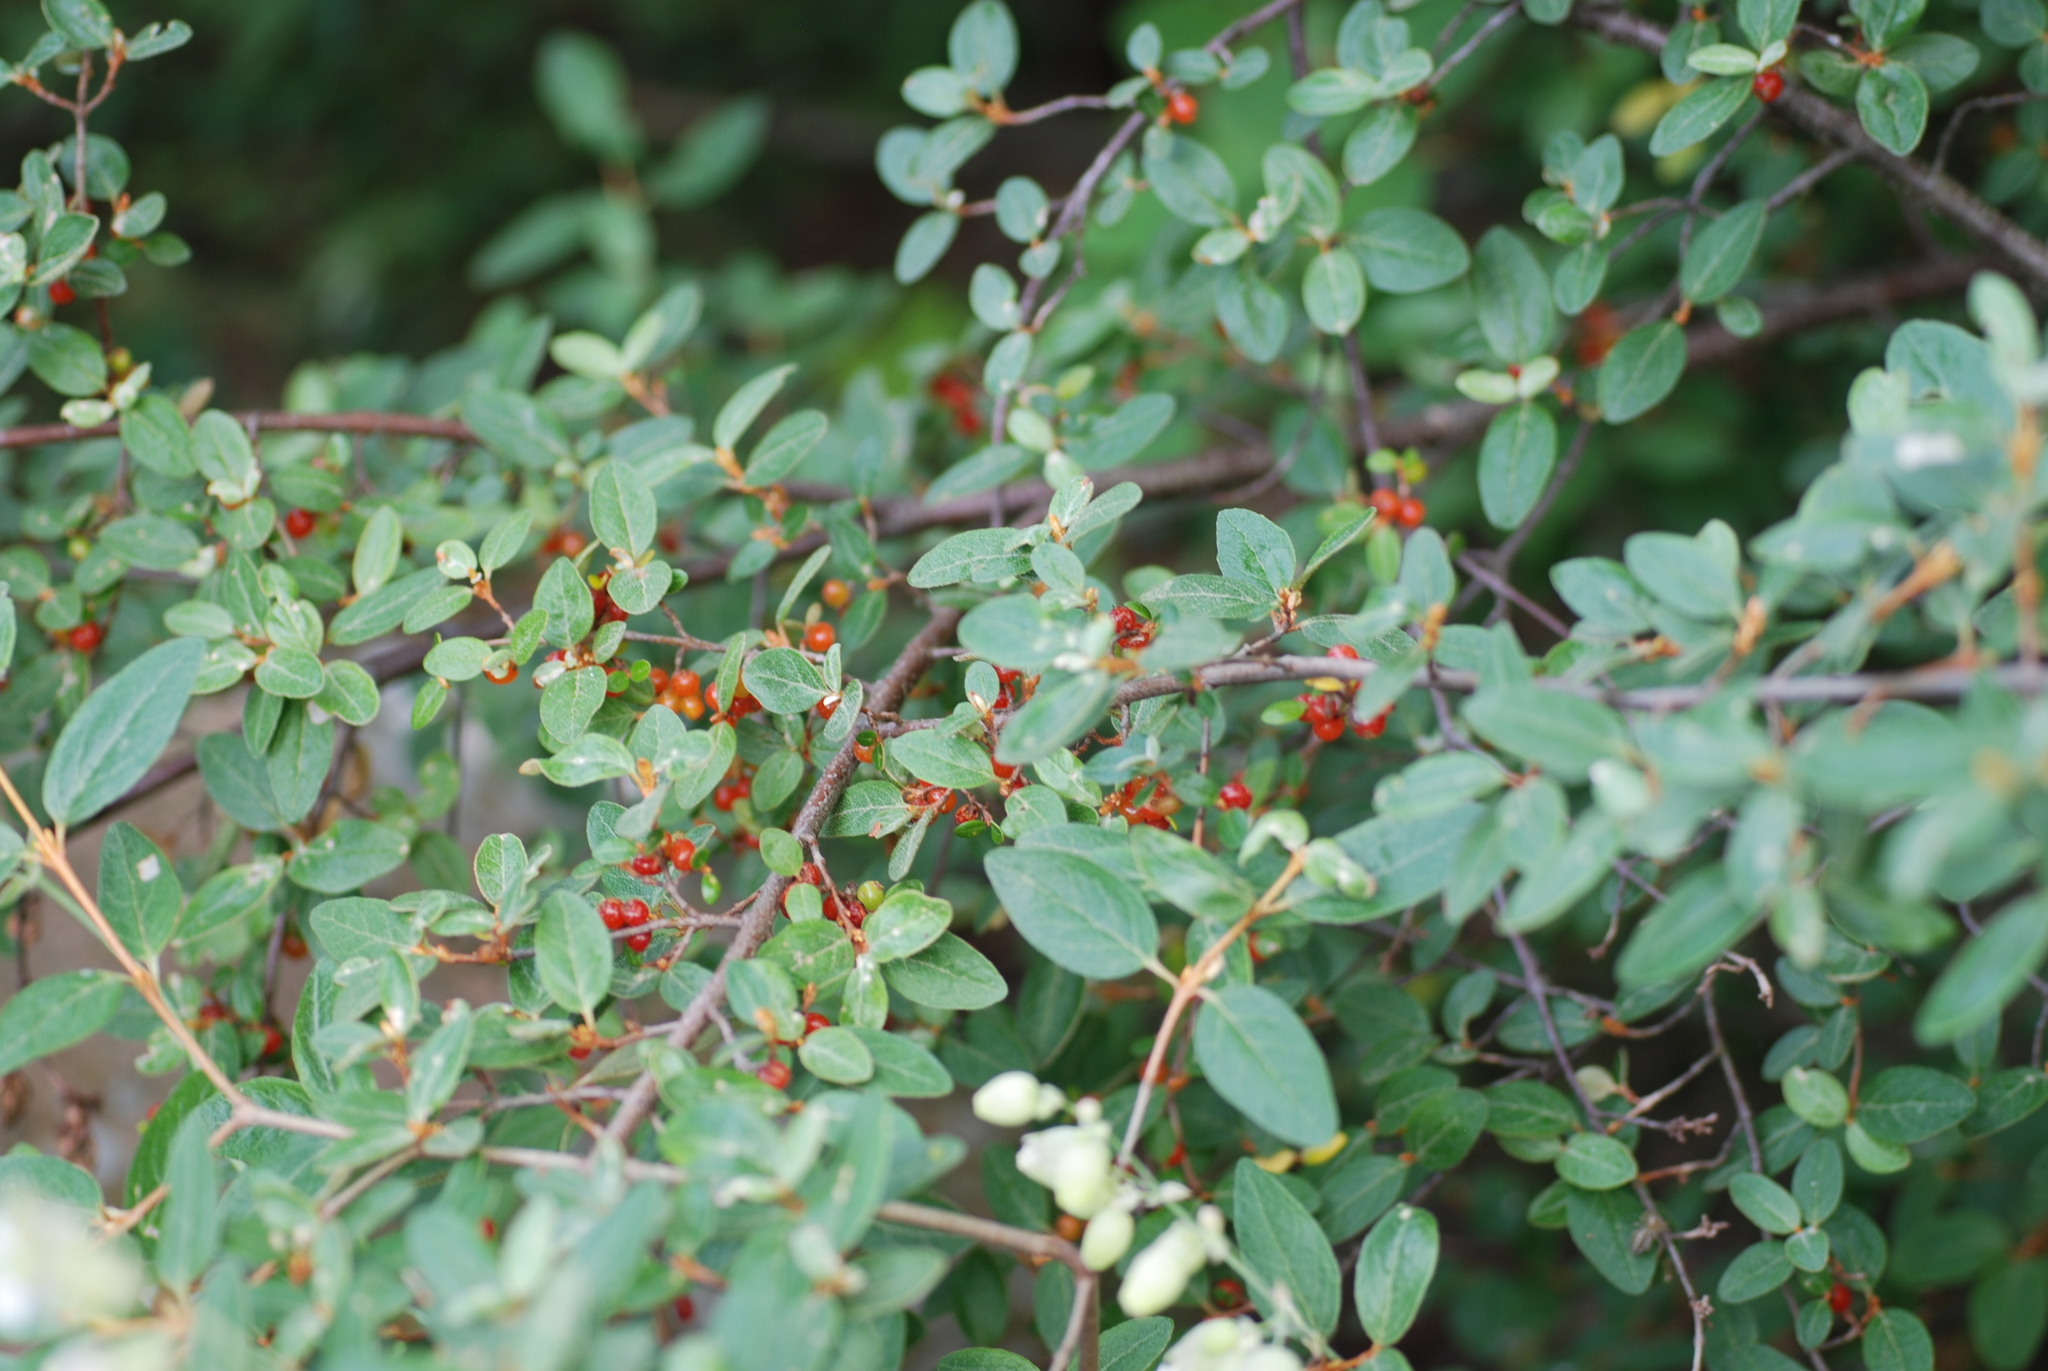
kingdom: Plantae
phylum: Tracheophyta
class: Magnoliopsida
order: Rosales
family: Elaeagnaceae
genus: Shepherdia
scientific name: Shepherdia canadensis
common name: Soapberry
